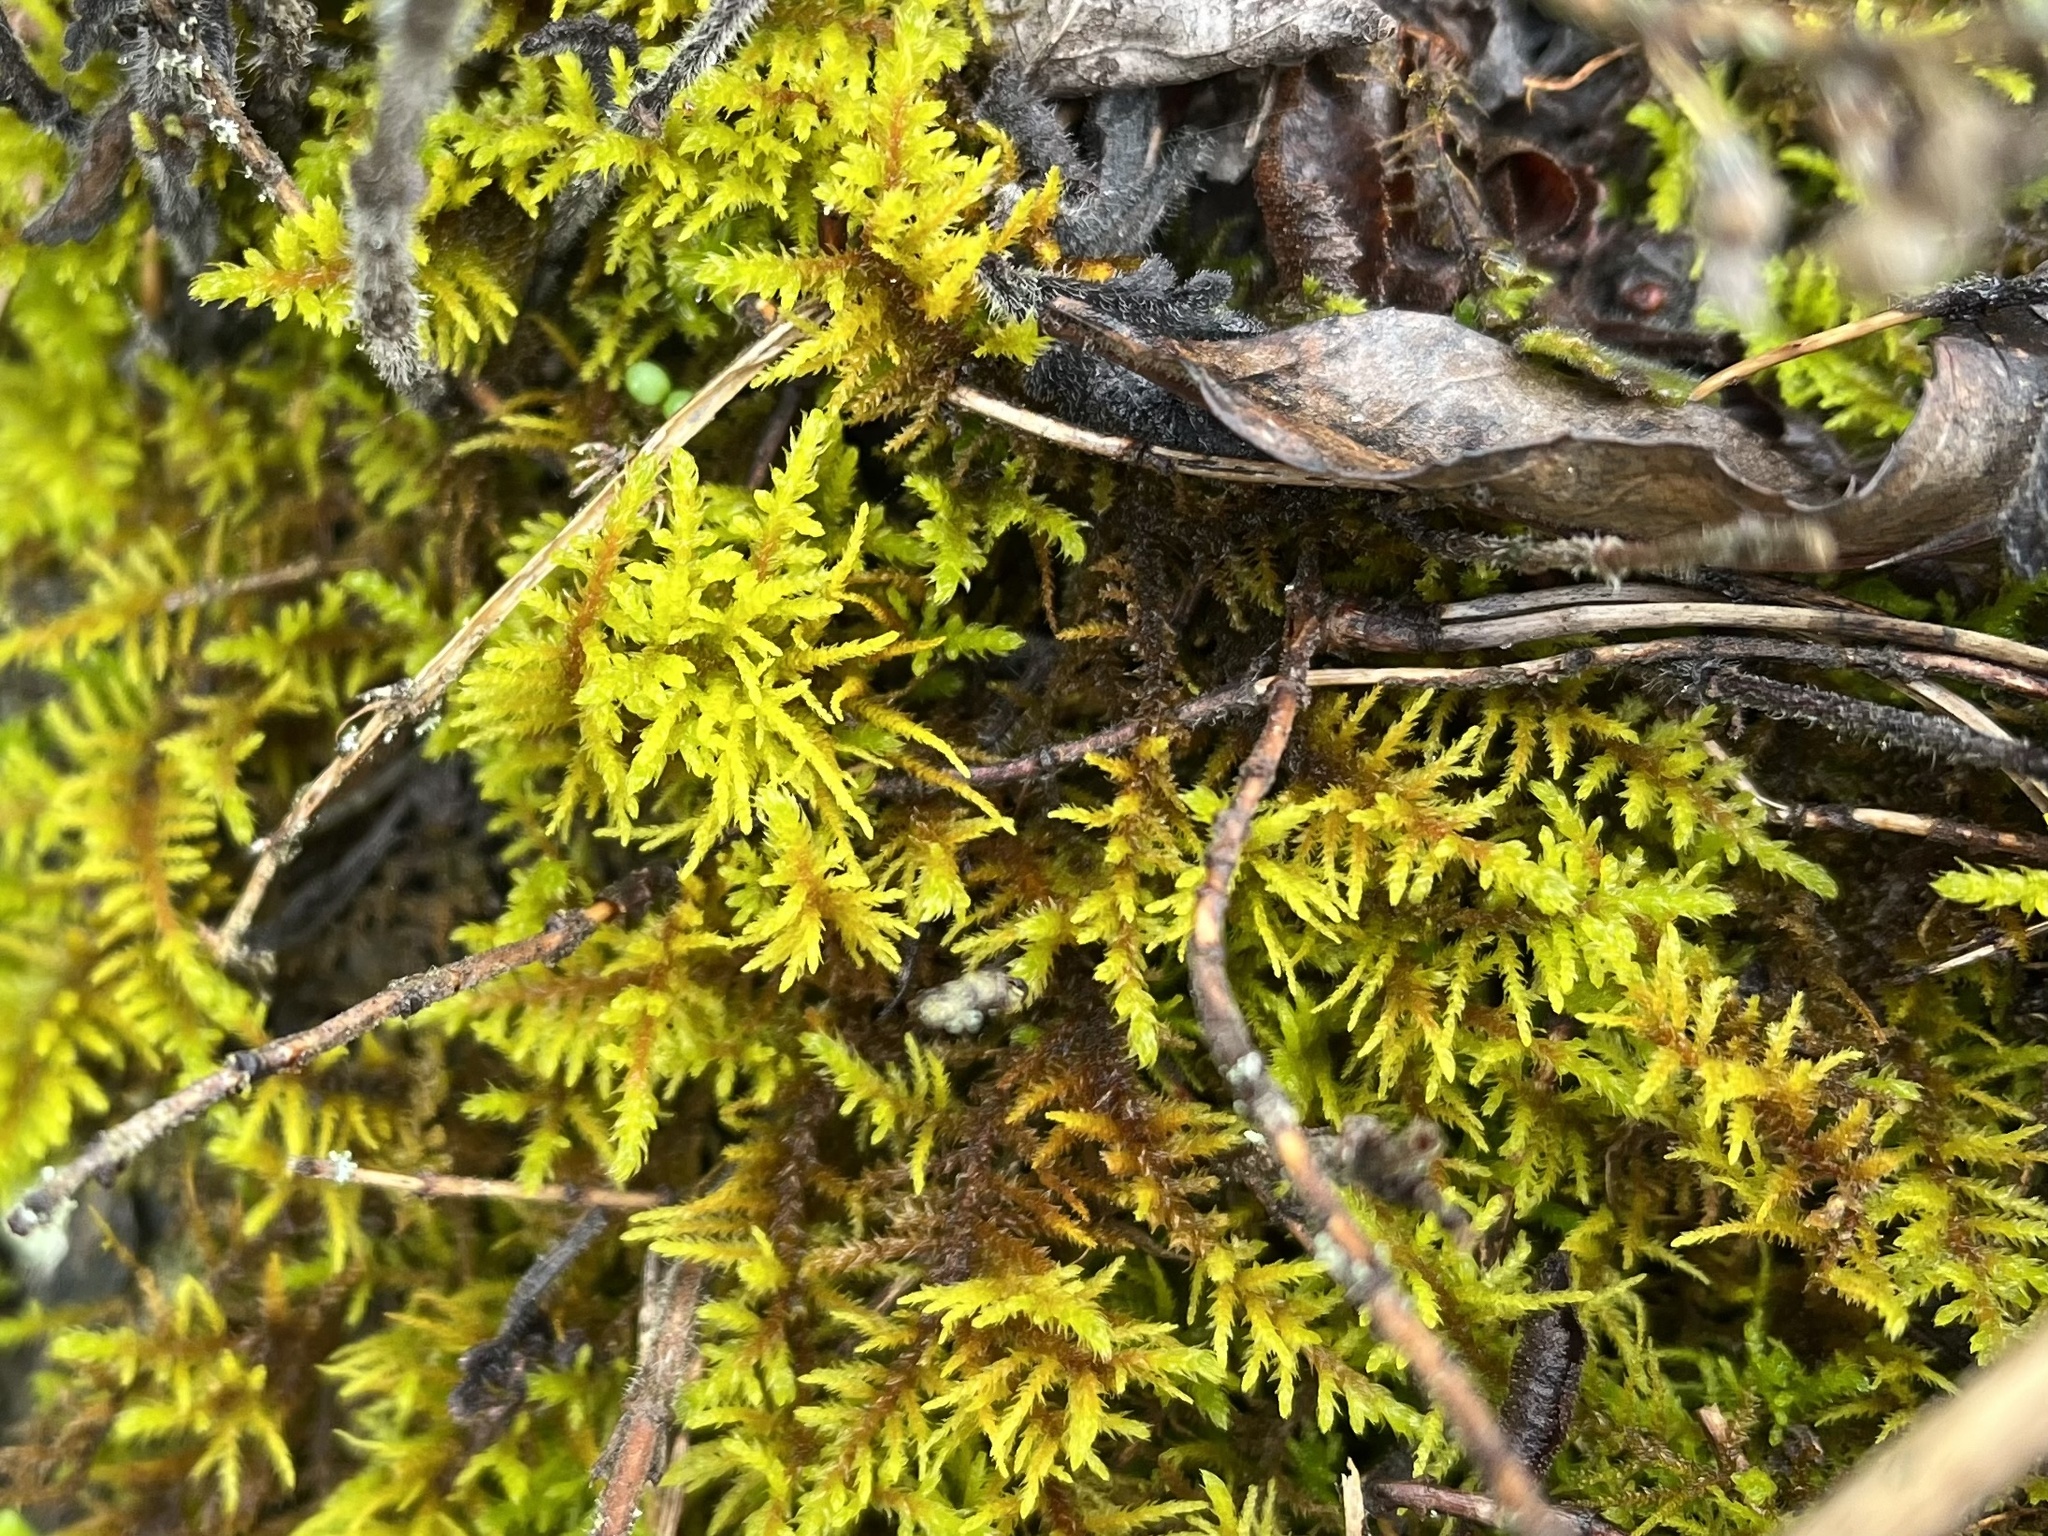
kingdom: Plantae
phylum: Bryophyta
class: Bryopsida
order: Hypnales
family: Thuidiaceae
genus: Abietinella
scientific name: Abietinella abietina
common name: Wiry fern moss
